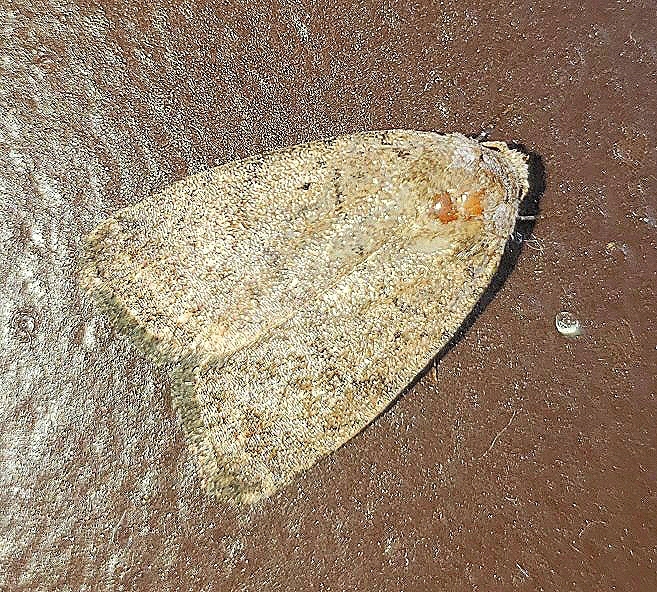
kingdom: Animalia
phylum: Arthropoda
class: Insecta
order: Lepidoptera
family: Noctuidae
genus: Athetis
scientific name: Athetis tarda
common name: Slowpoke moth
